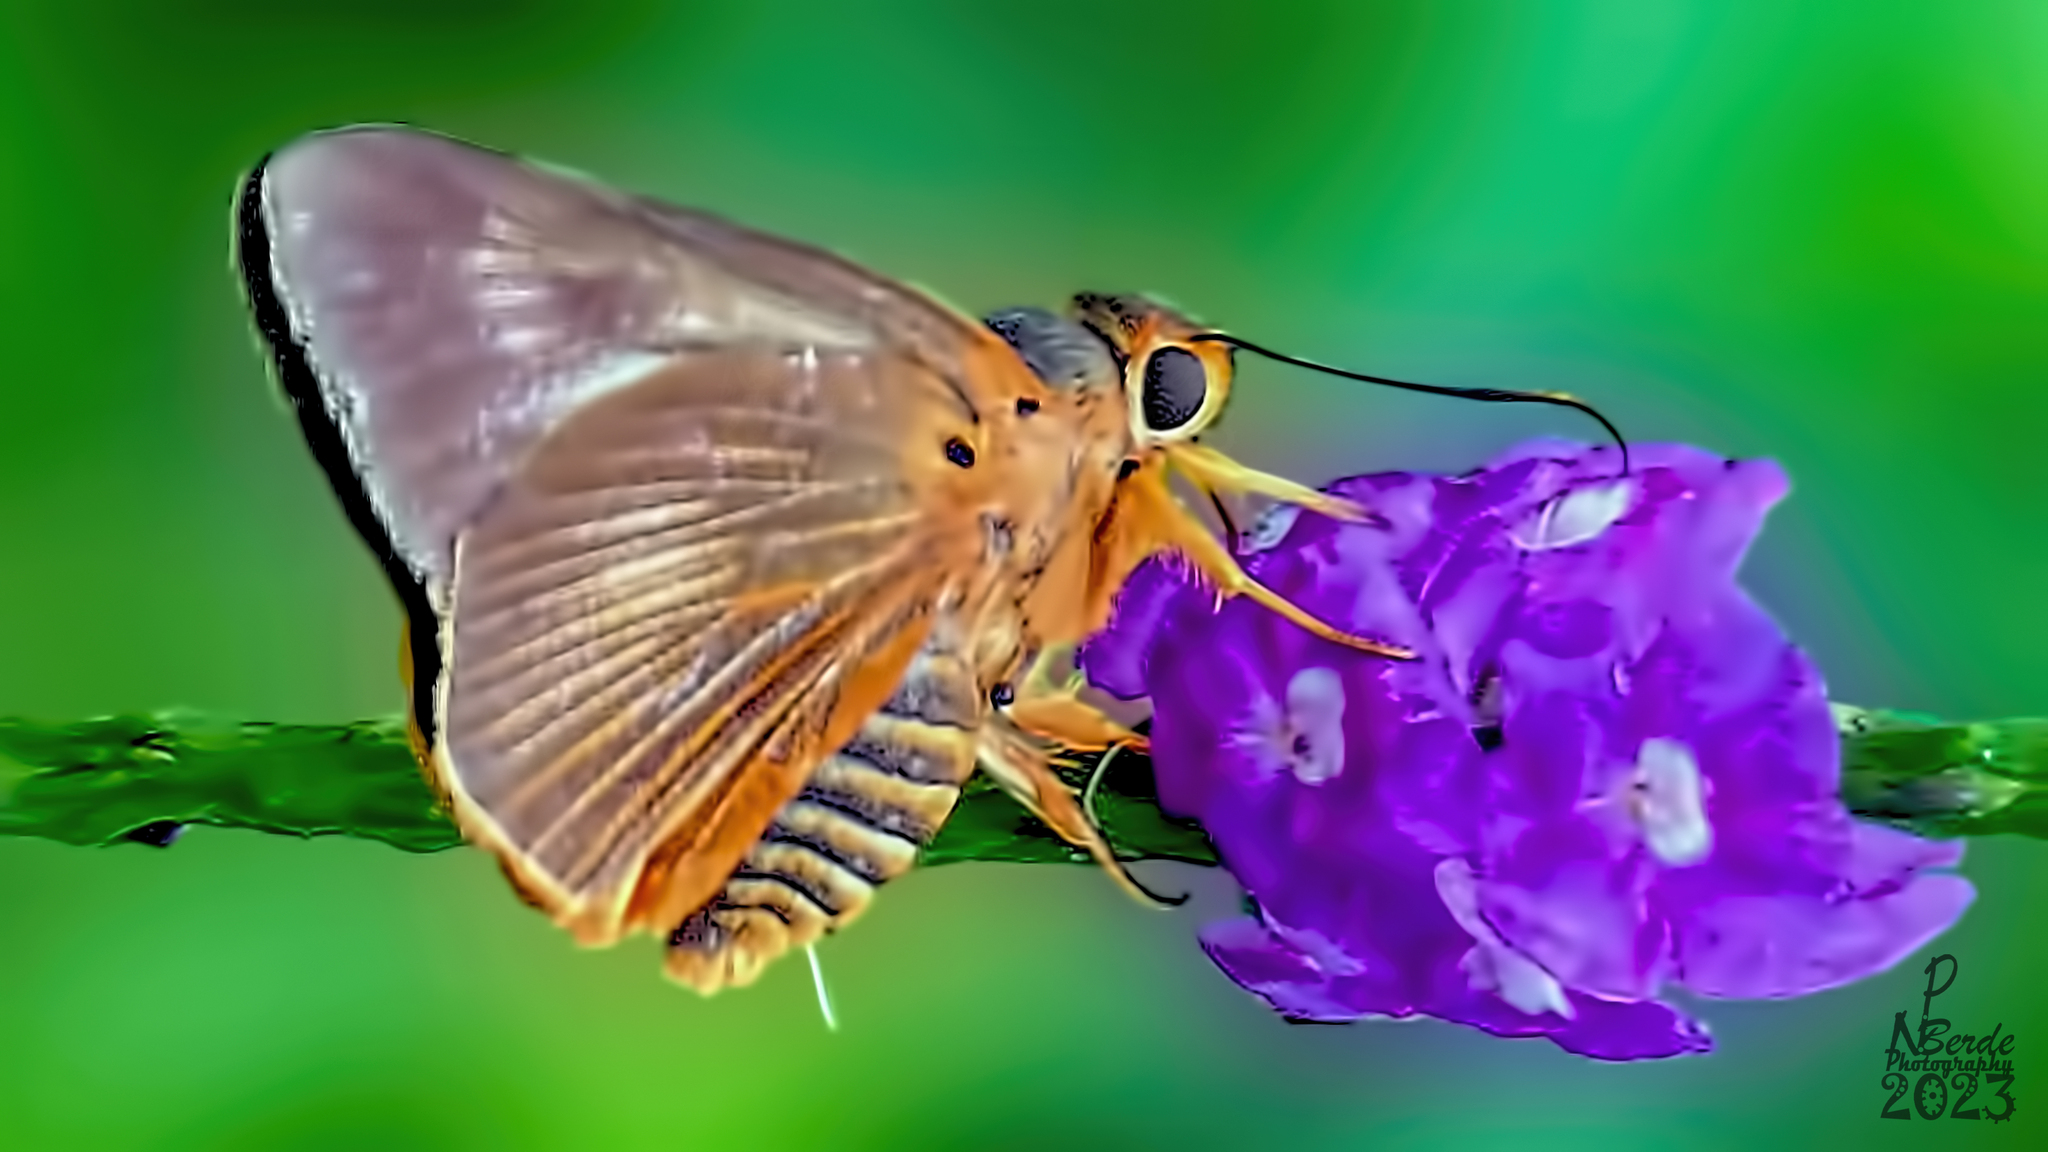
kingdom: Animalia
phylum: Arthropoda
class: Insecta
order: Lepidoptera
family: Hesperiidae
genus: Bibasis
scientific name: Bibasis jaina
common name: Common orange awlet
